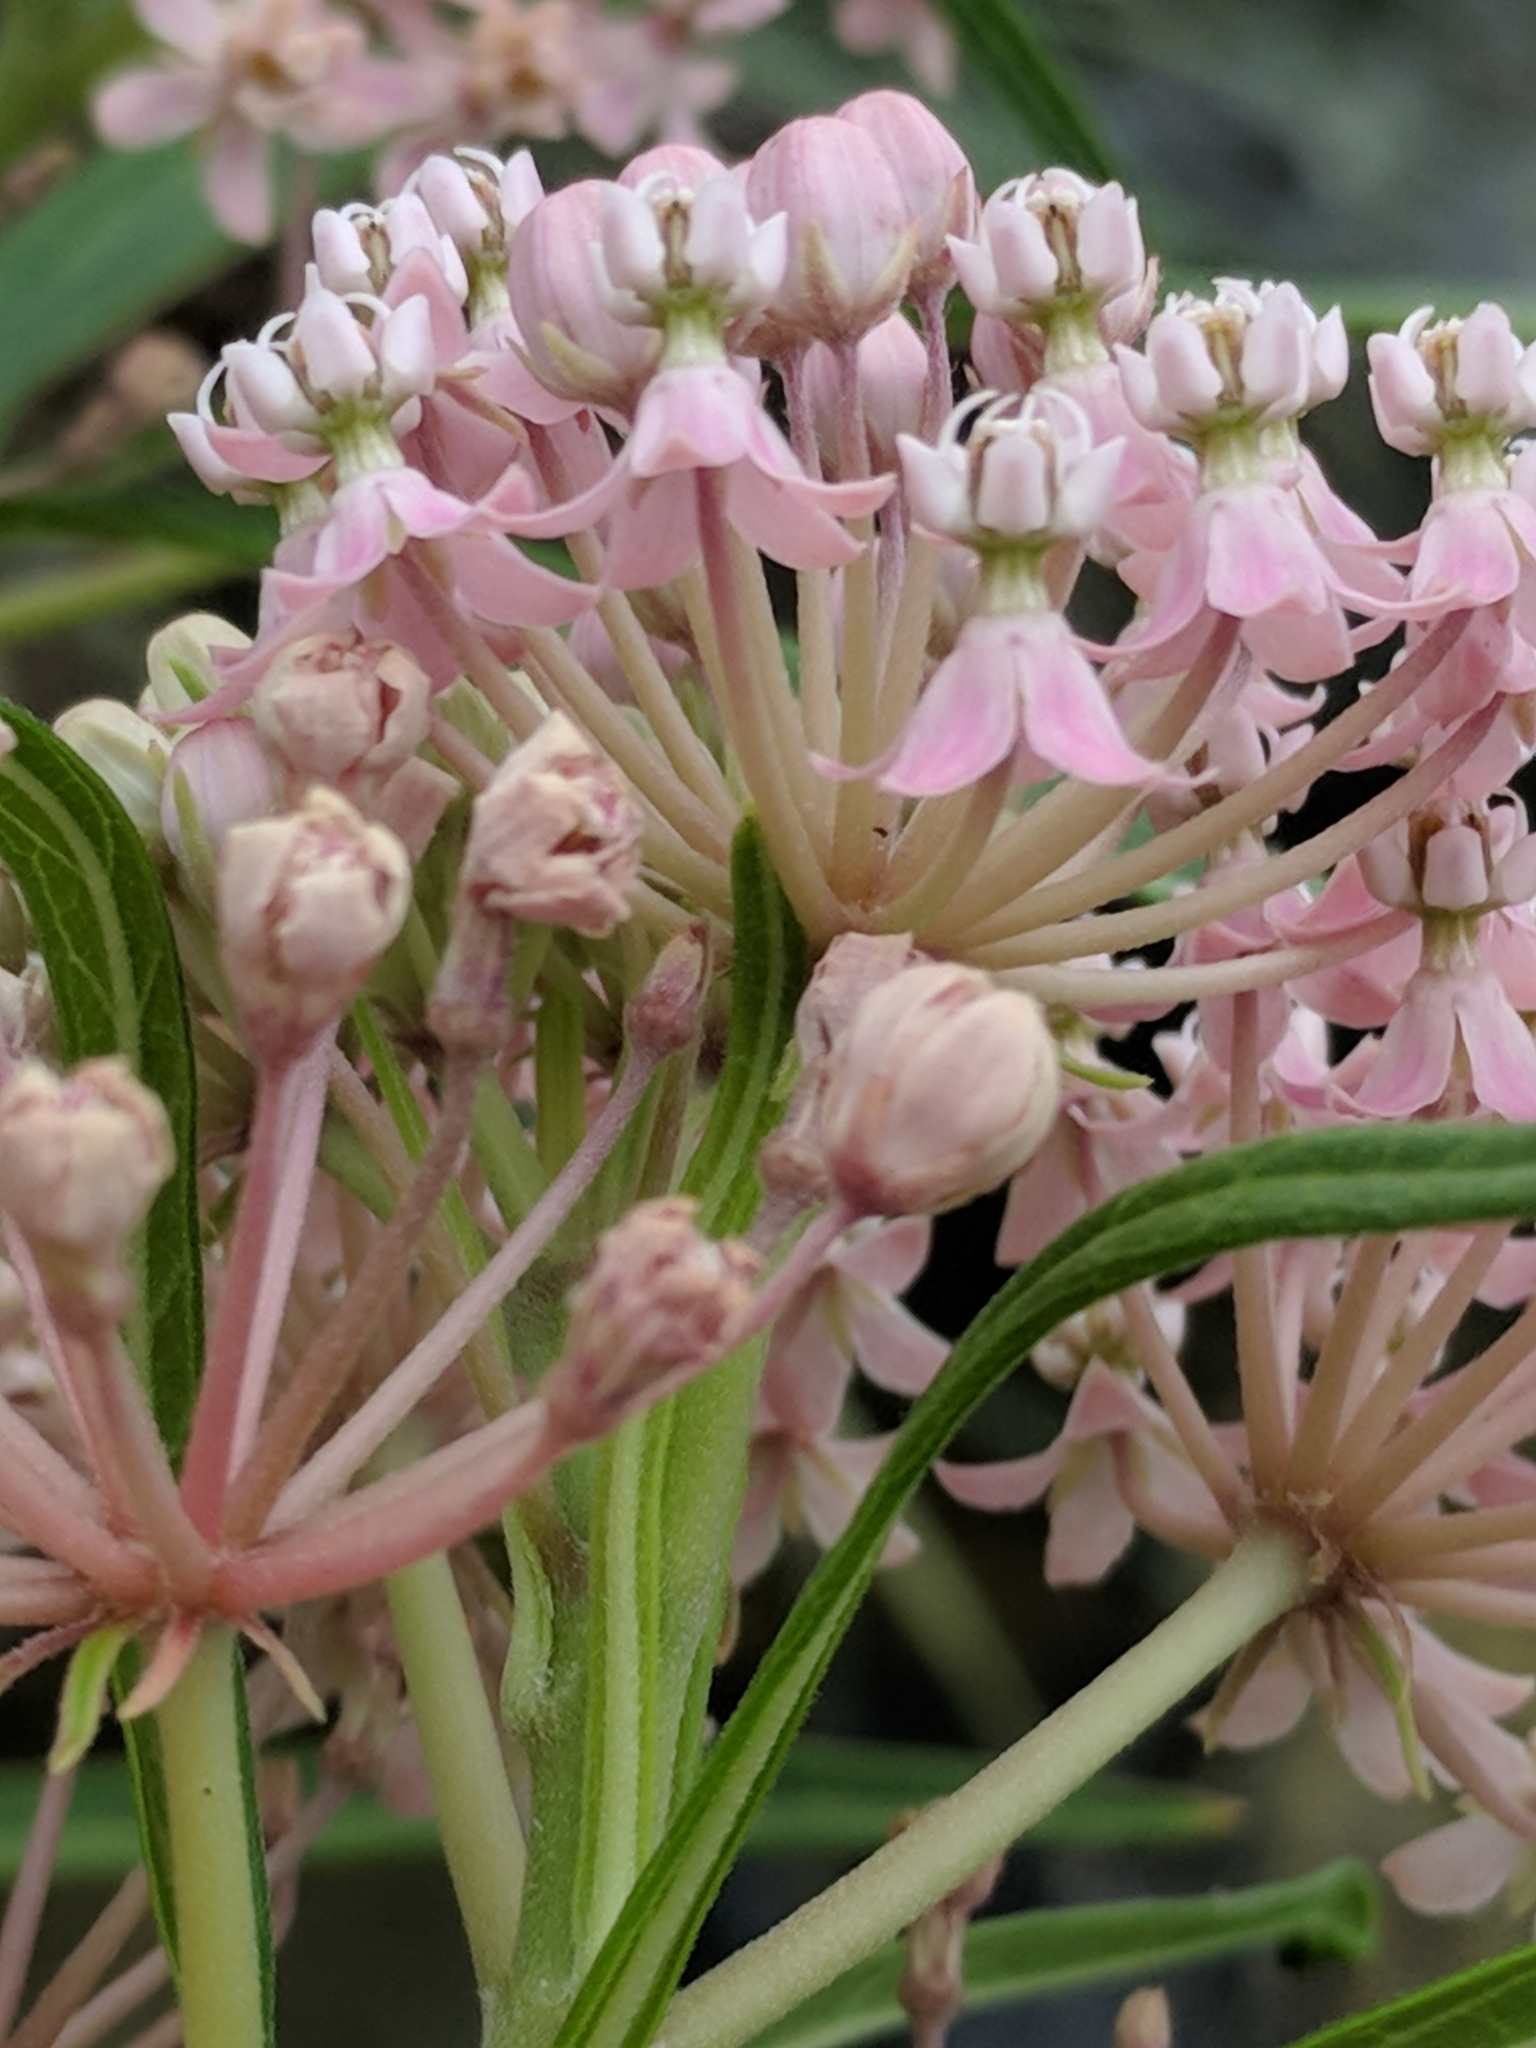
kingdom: Plantae
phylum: Tracheophyta
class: Magnoliopsida
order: Gentianales
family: Apocynaceae
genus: Asclepias
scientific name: Asclepias incarnata
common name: Swamp milkweed
